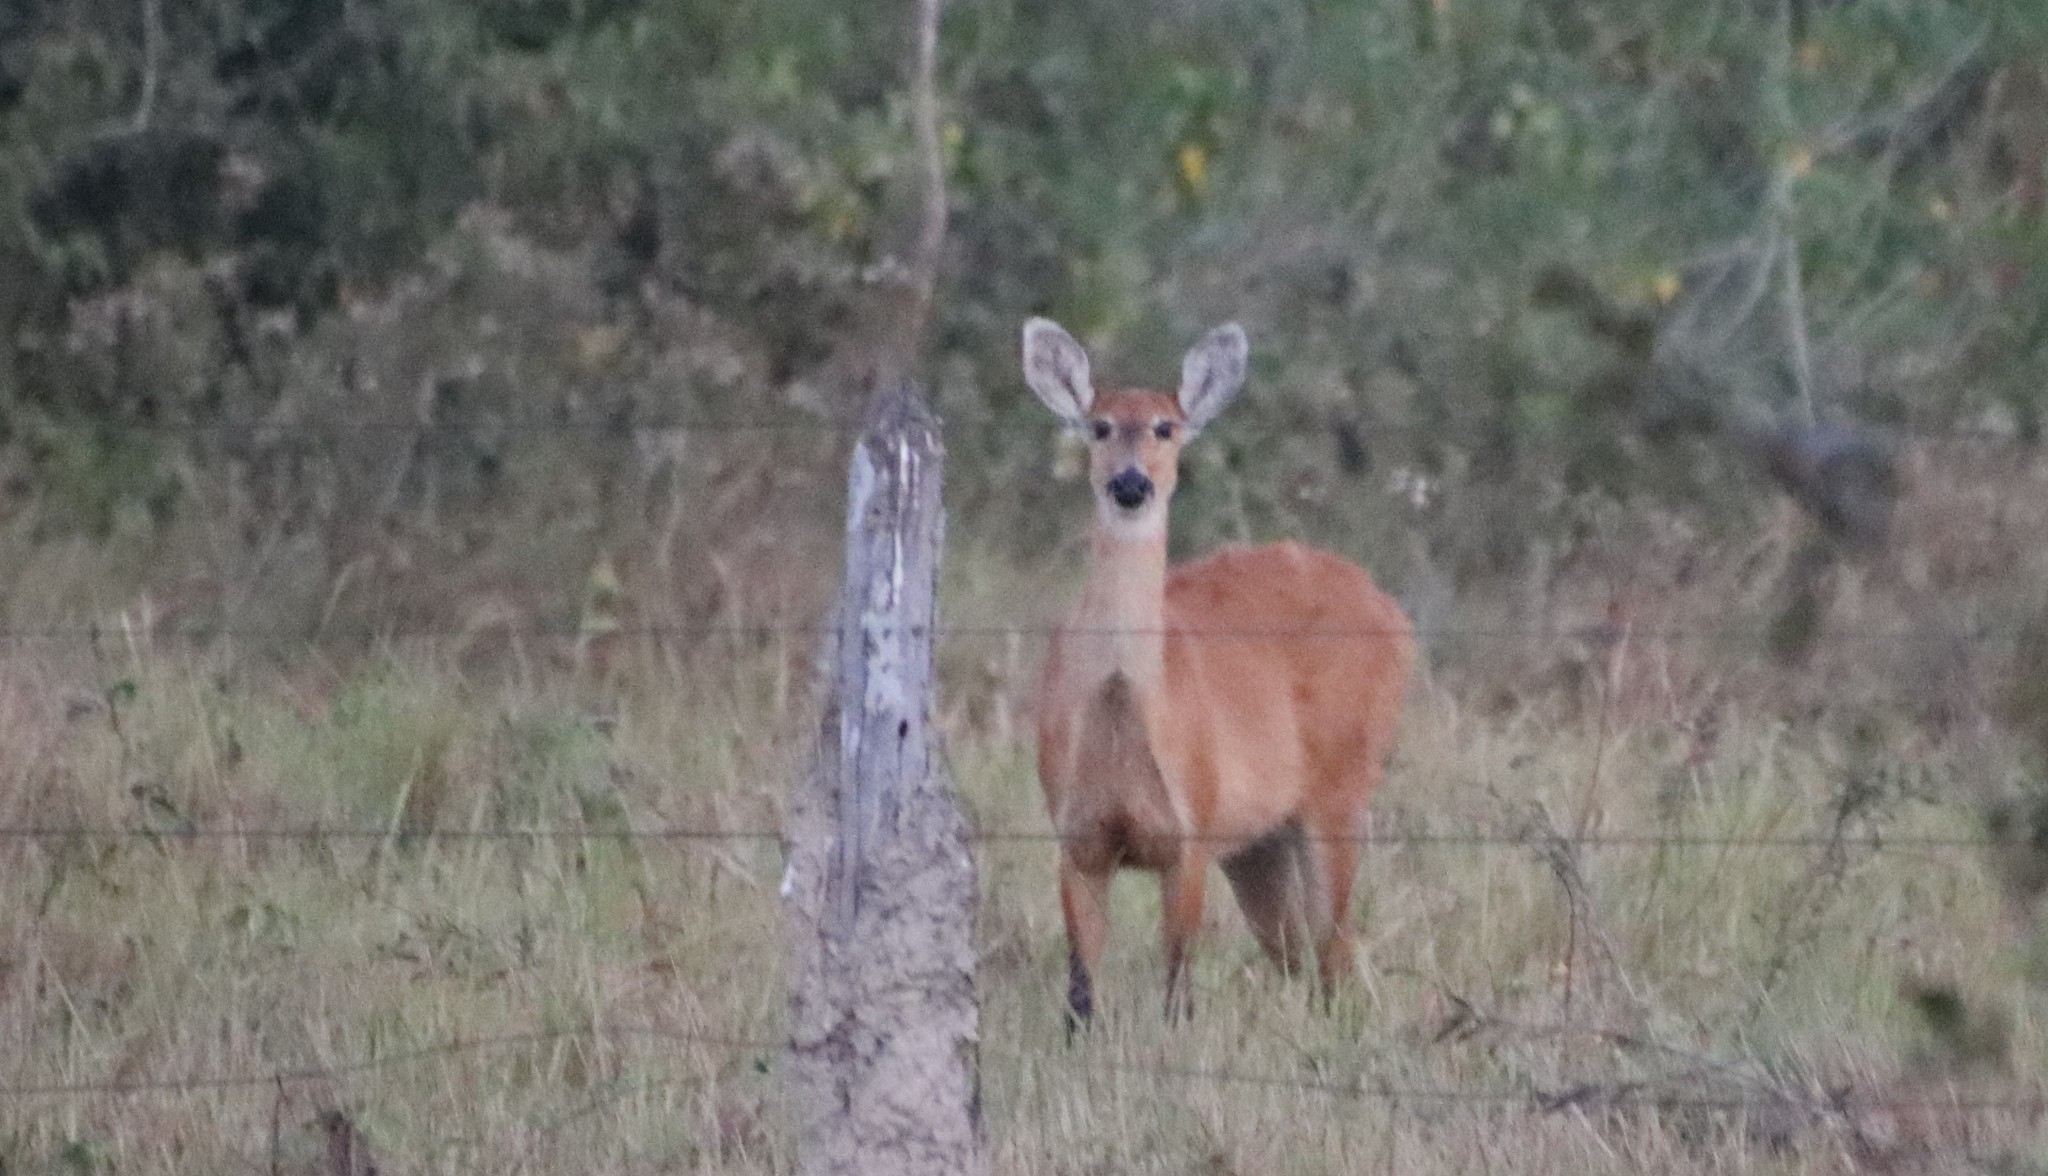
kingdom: Animalia
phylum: Chordata
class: Mammalia
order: Artiodactyla
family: Cervidae
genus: Blastocerus
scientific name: Blastocerus dichotomus
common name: Marsh deer
